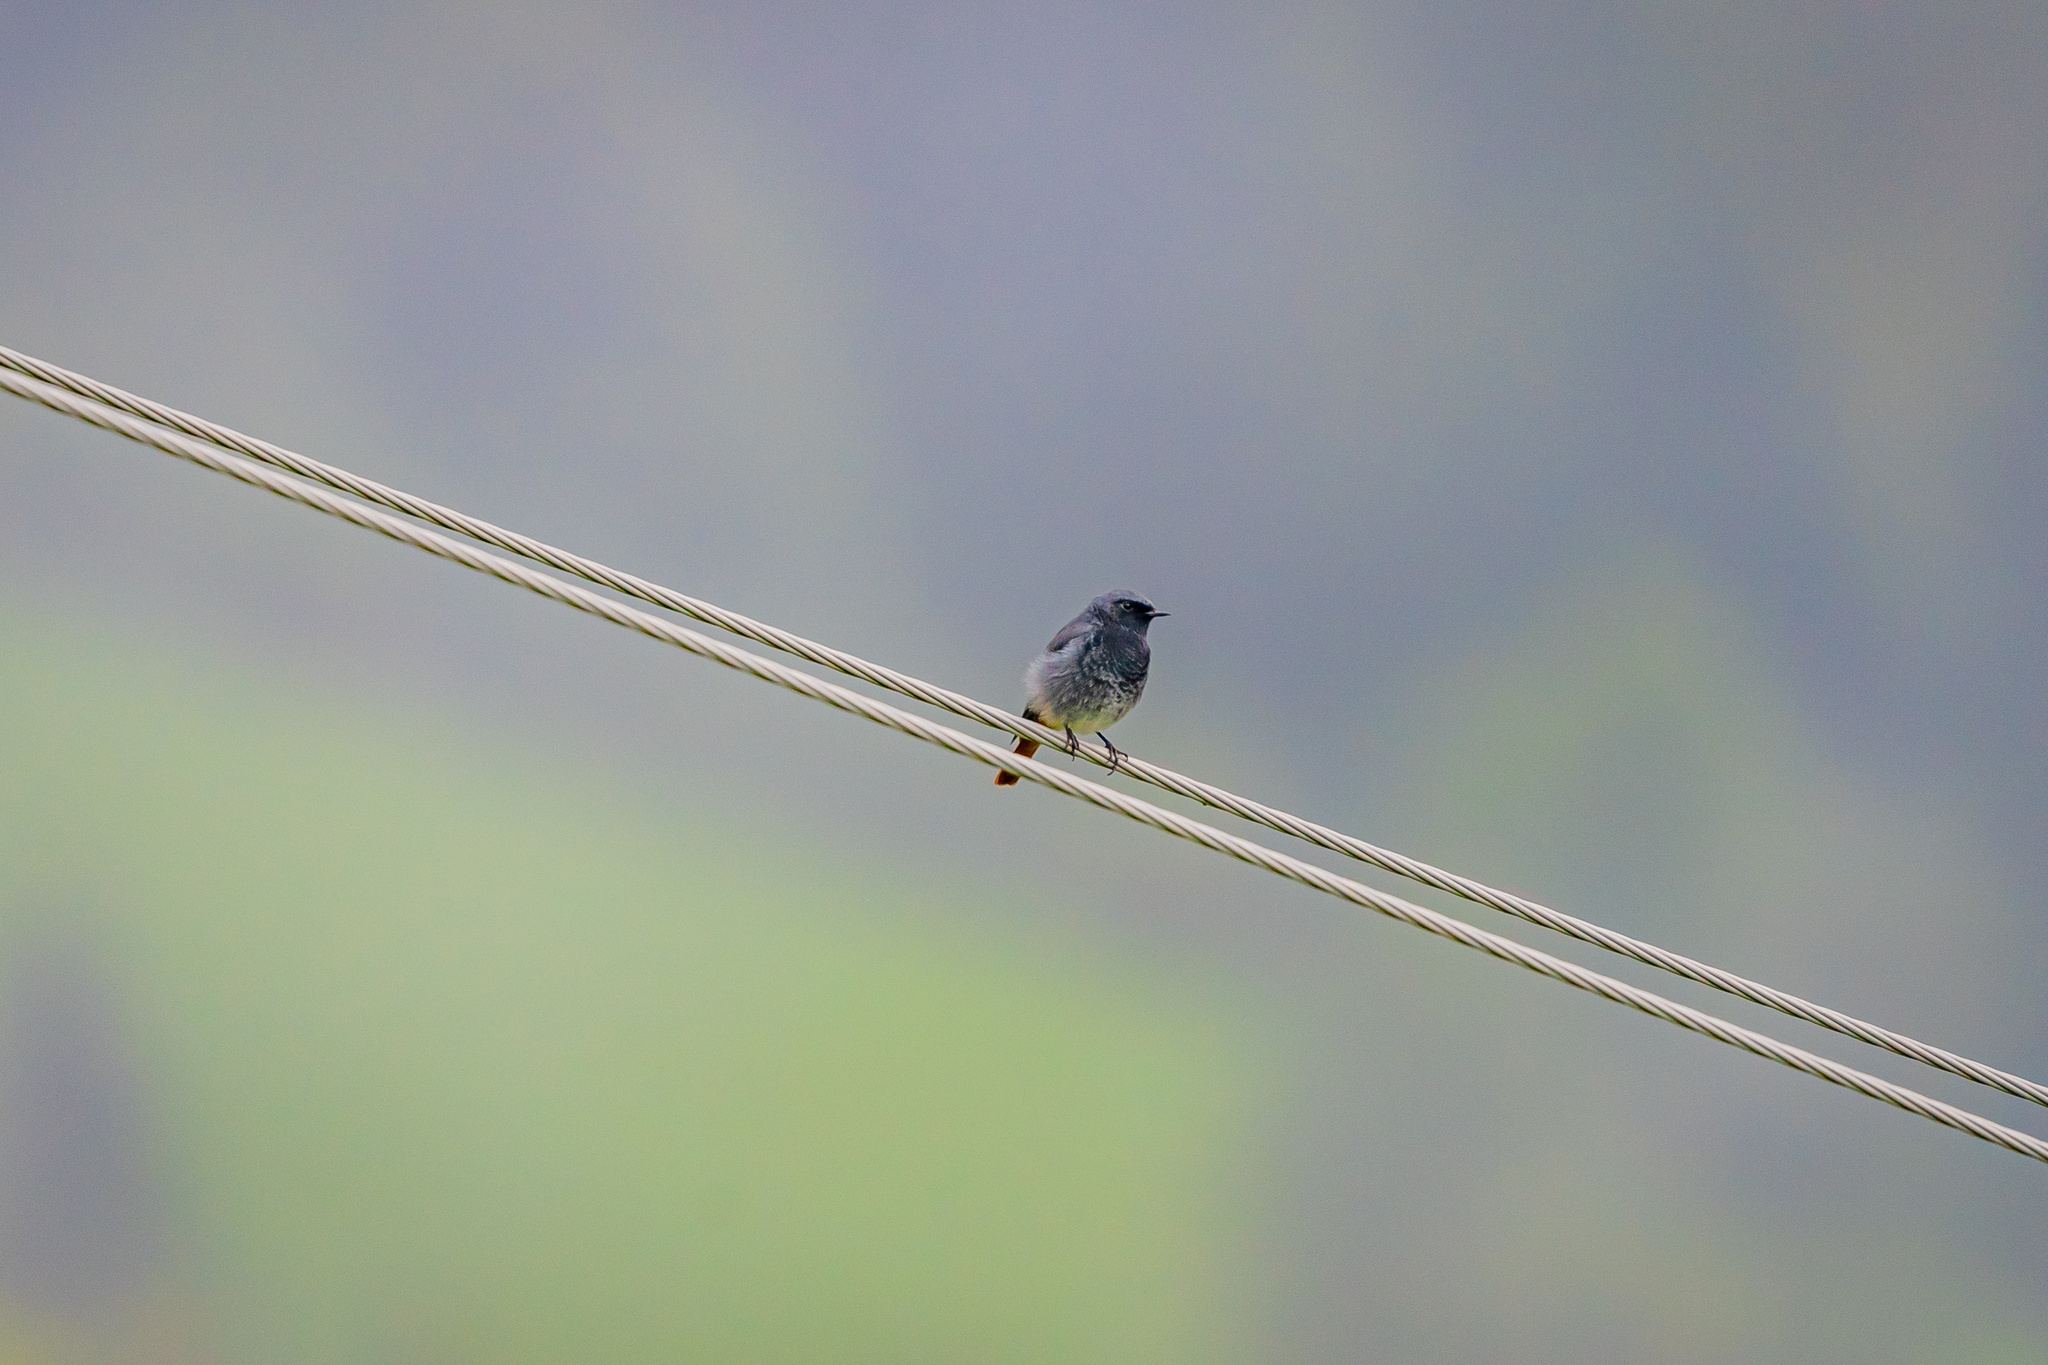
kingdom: Animalia
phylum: Chordata
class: Aves
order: Passeriformes
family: Muscicapidae
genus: Phoenicurus
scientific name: Phoenicurus ochruros
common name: Black redstart
